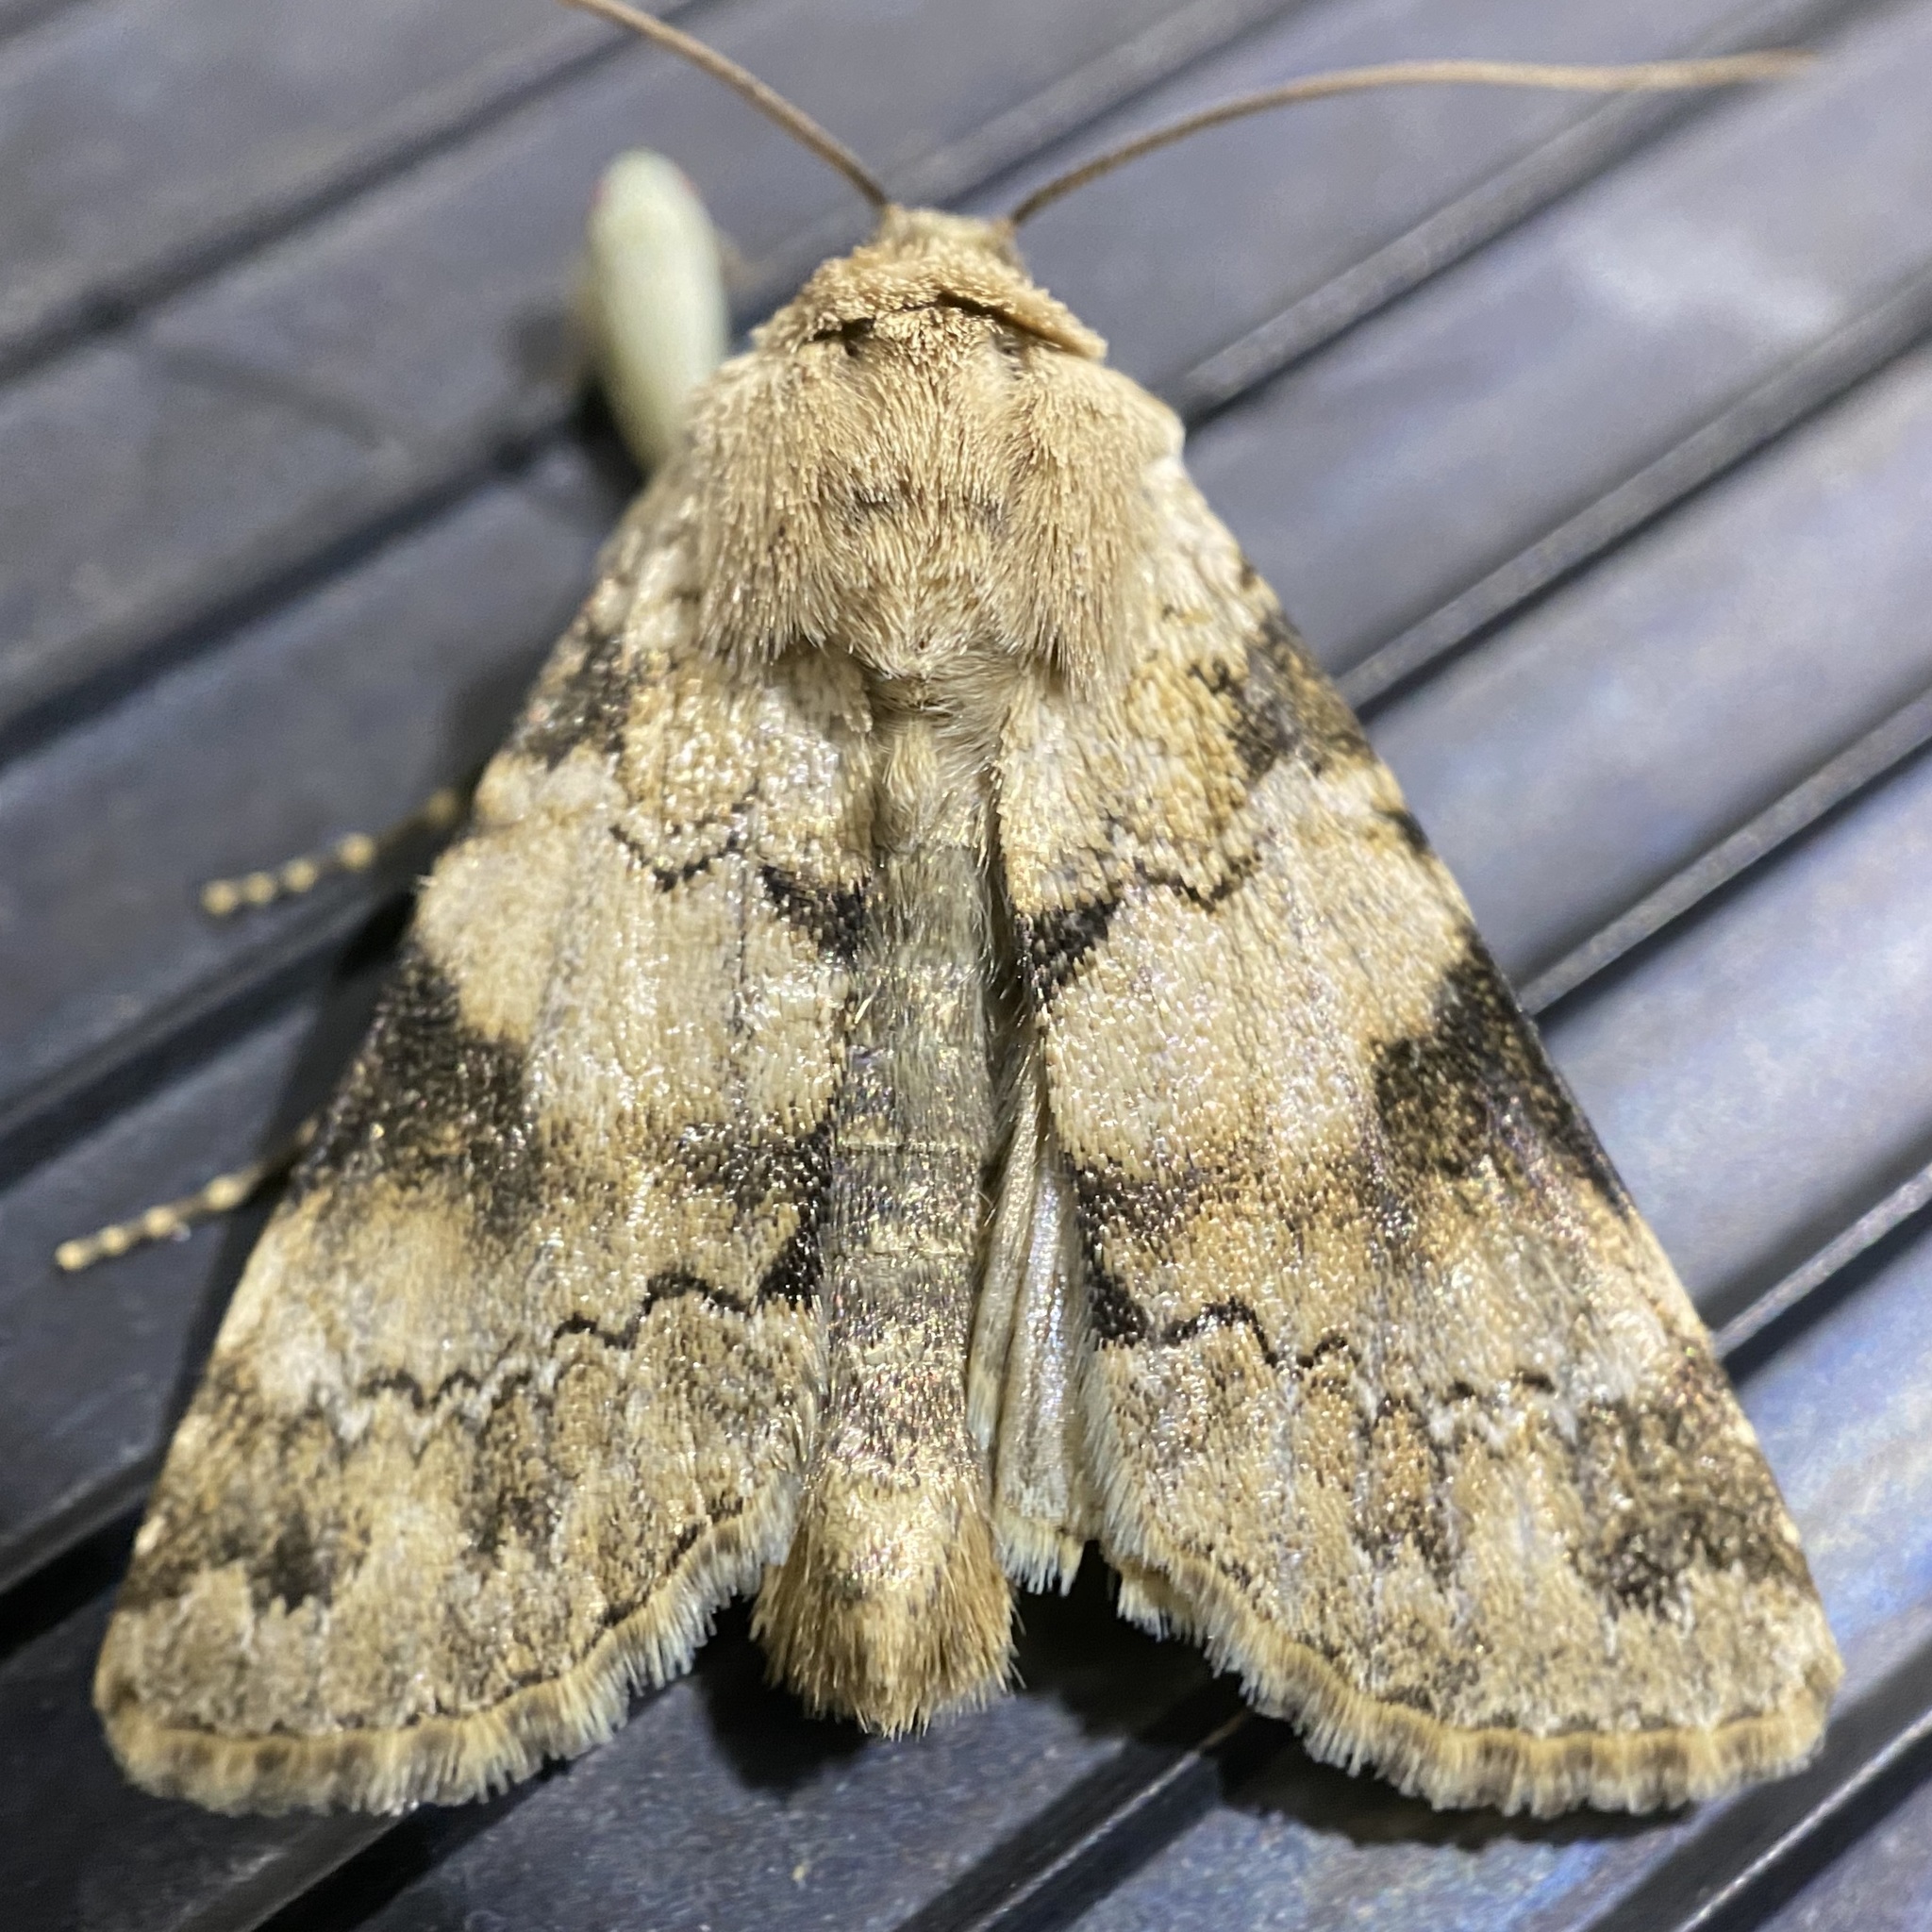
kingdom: Animalia
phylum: Arthropoda
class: Insecta
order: Lepidoptera
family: Noctuidae
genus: Agrotisia
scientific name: Agrotisia evelinae
